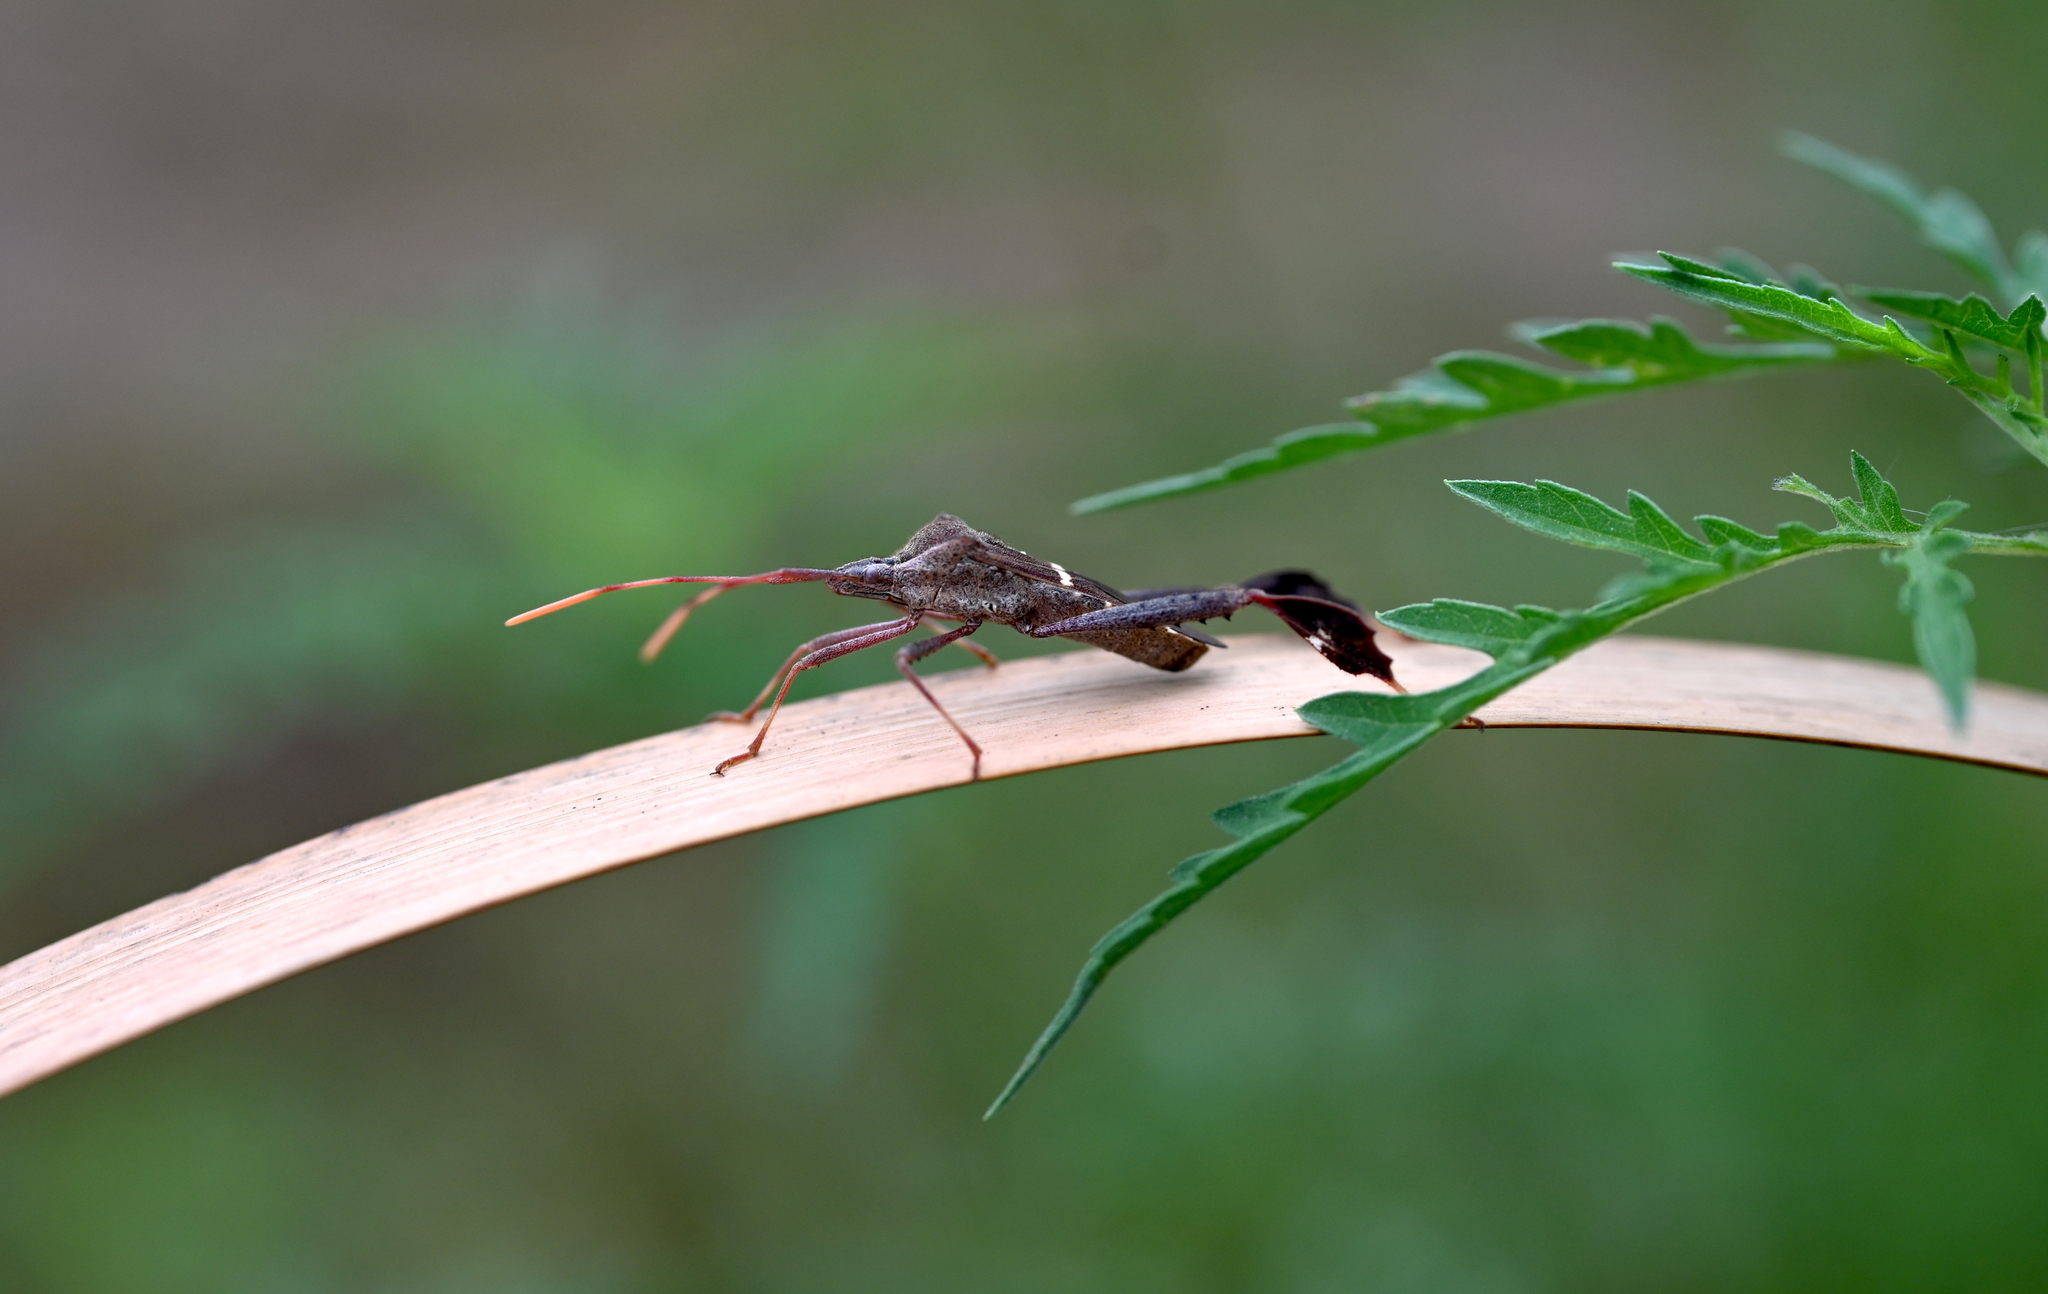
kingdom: Animalia
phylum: Arthropoda
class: Insecta
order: Hemiptera
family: Coreidae
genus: Leptoglossus
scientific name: Leptoglossus phyllopus
